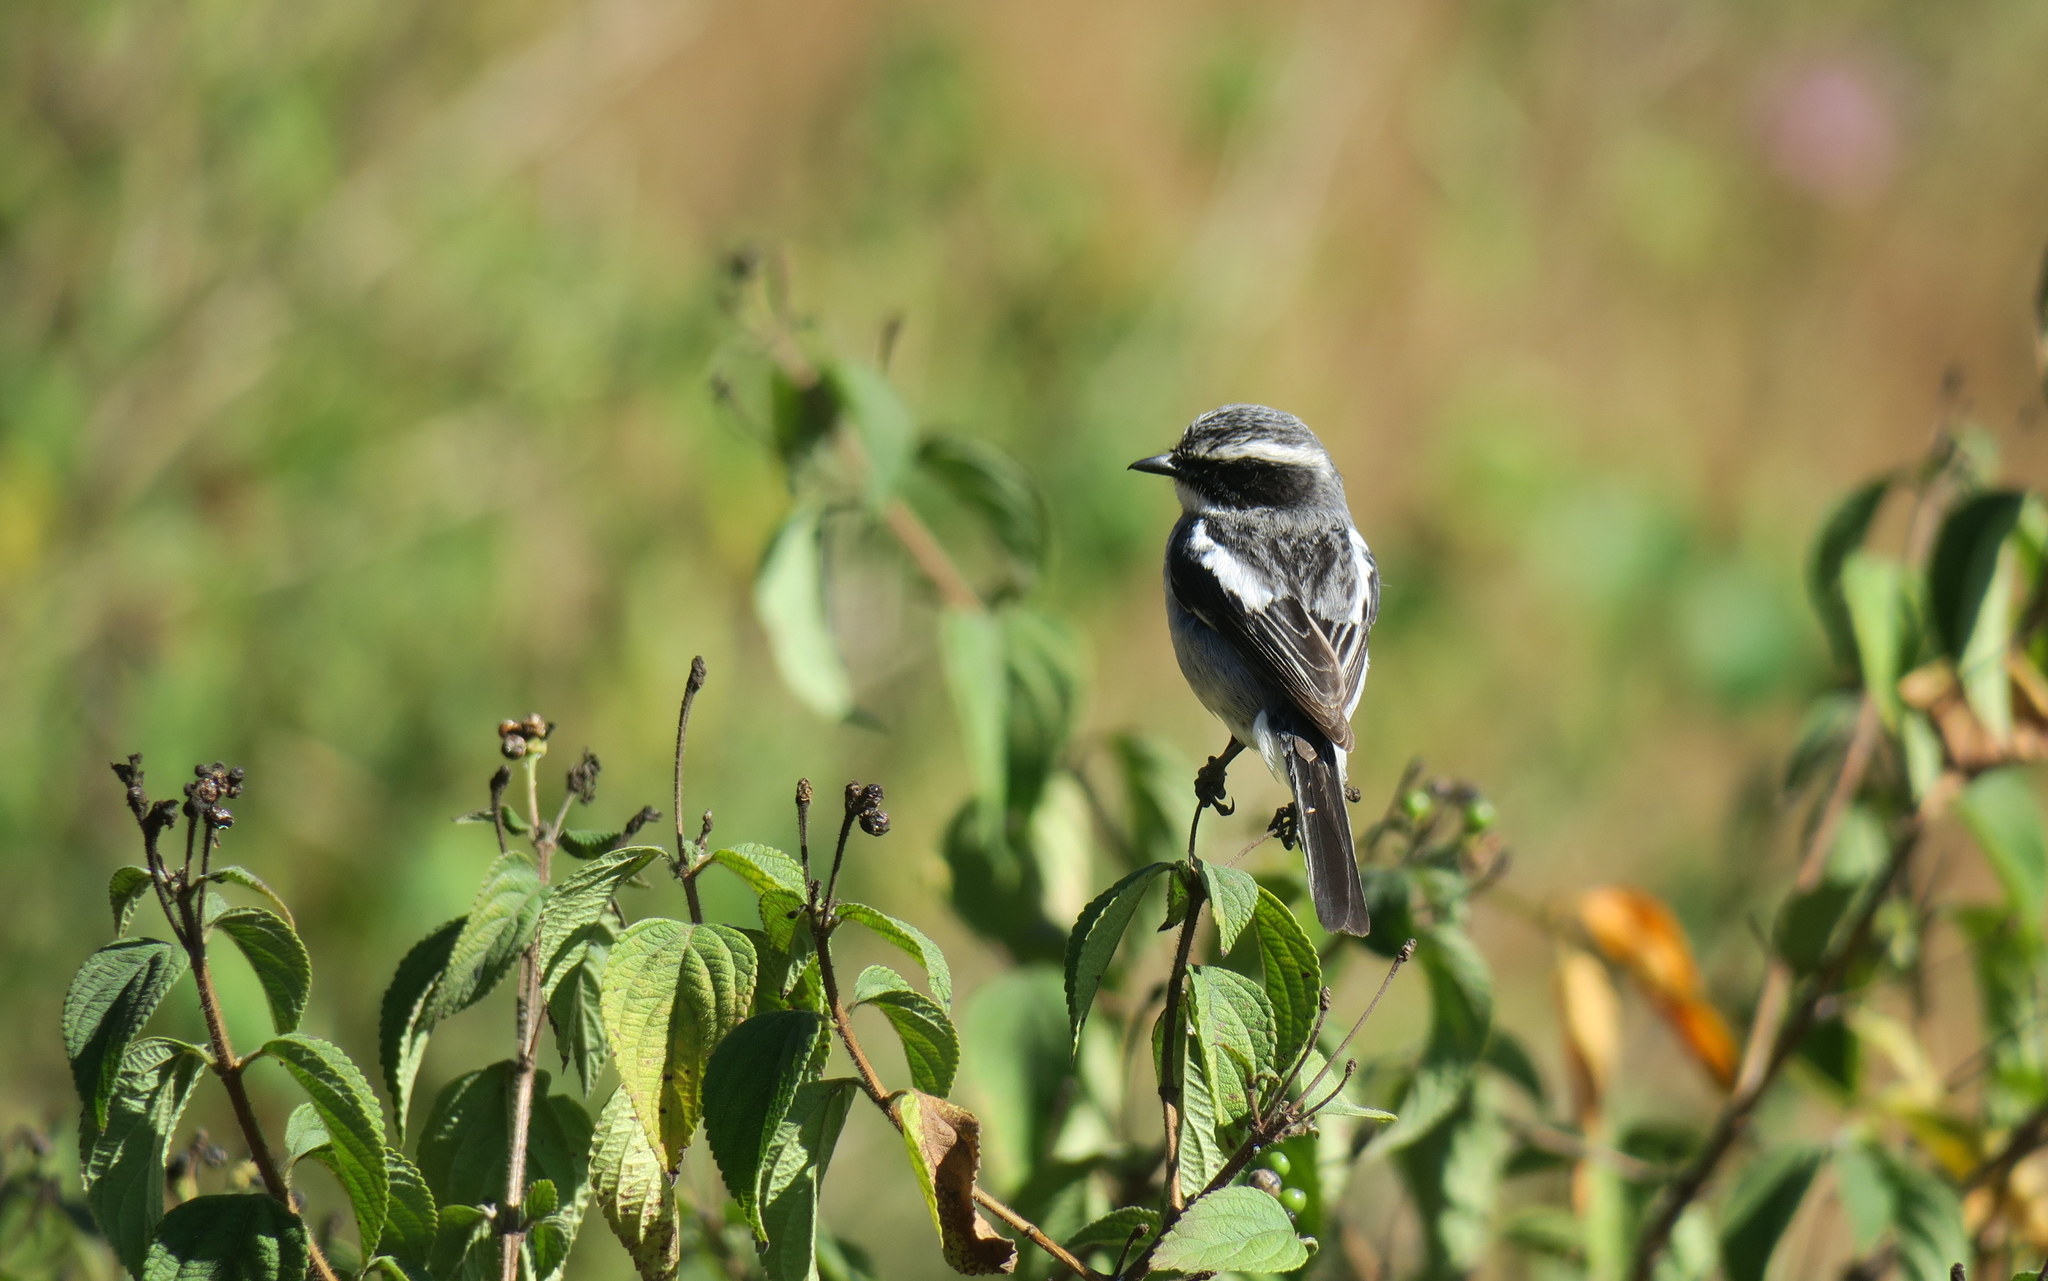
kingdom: Animalia
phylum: Chordata
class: Aves
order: Passeriformes
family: Muscicapidae
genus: Saxicola
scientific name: Saxicola ferreus
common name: Grey bush chat
